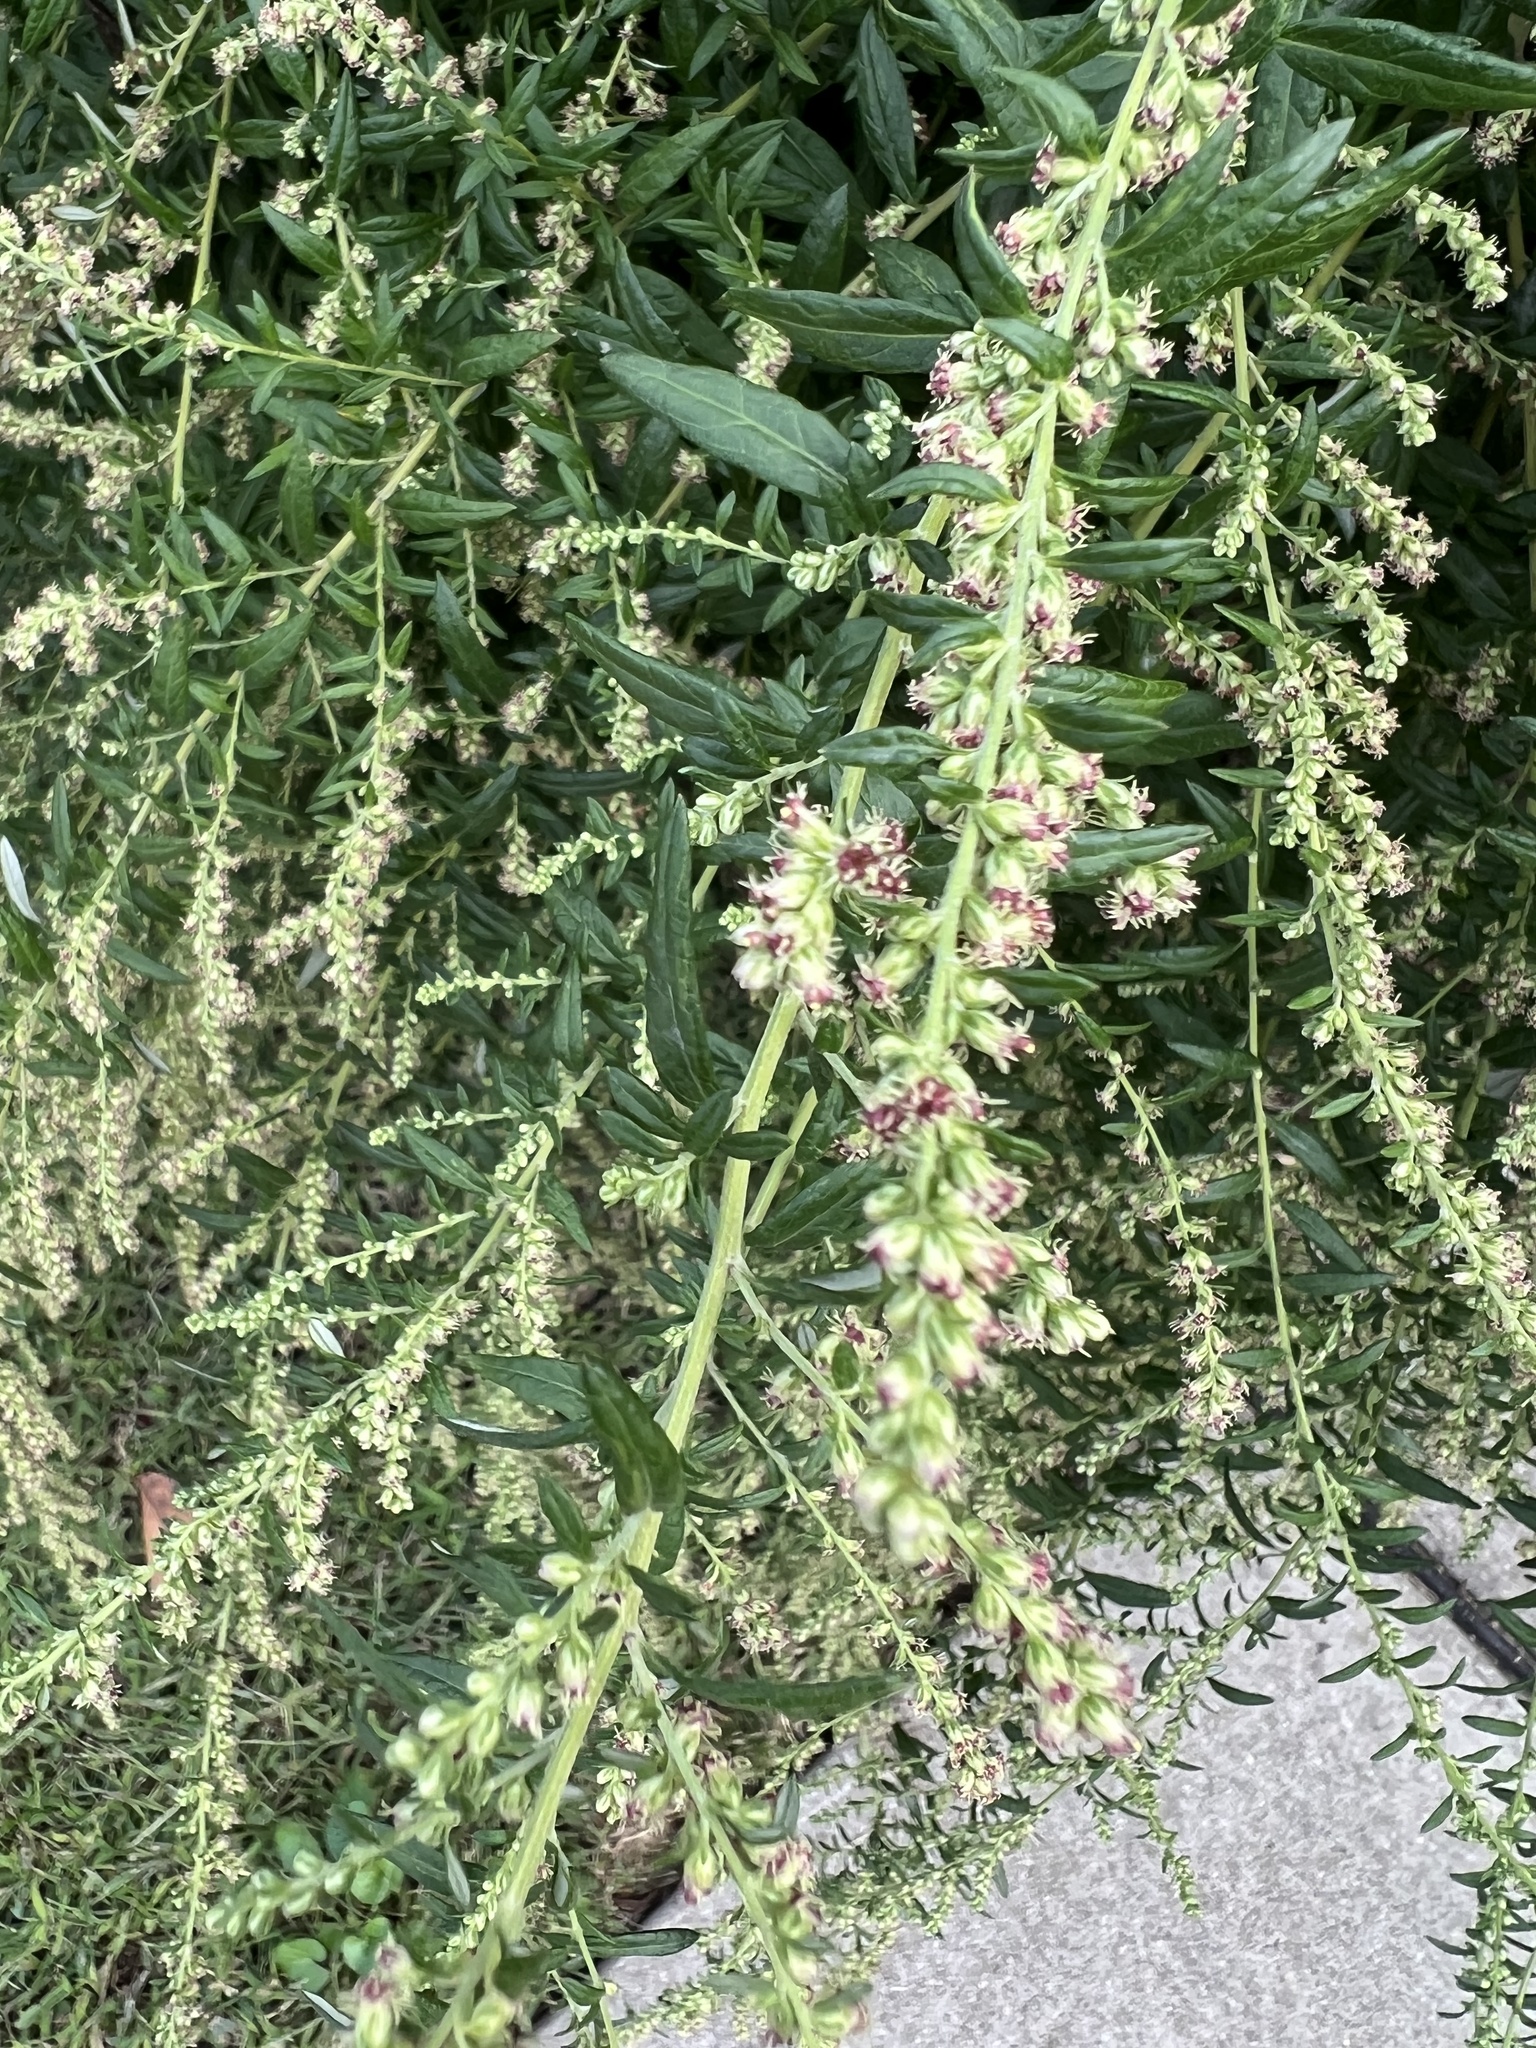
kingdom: Plantae
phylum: Tracheophyta
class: Magnoliopsida
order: Asterales
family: Asteraceae
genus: Artemisia
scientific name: Artemisia vulgaris
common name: Mugwort
